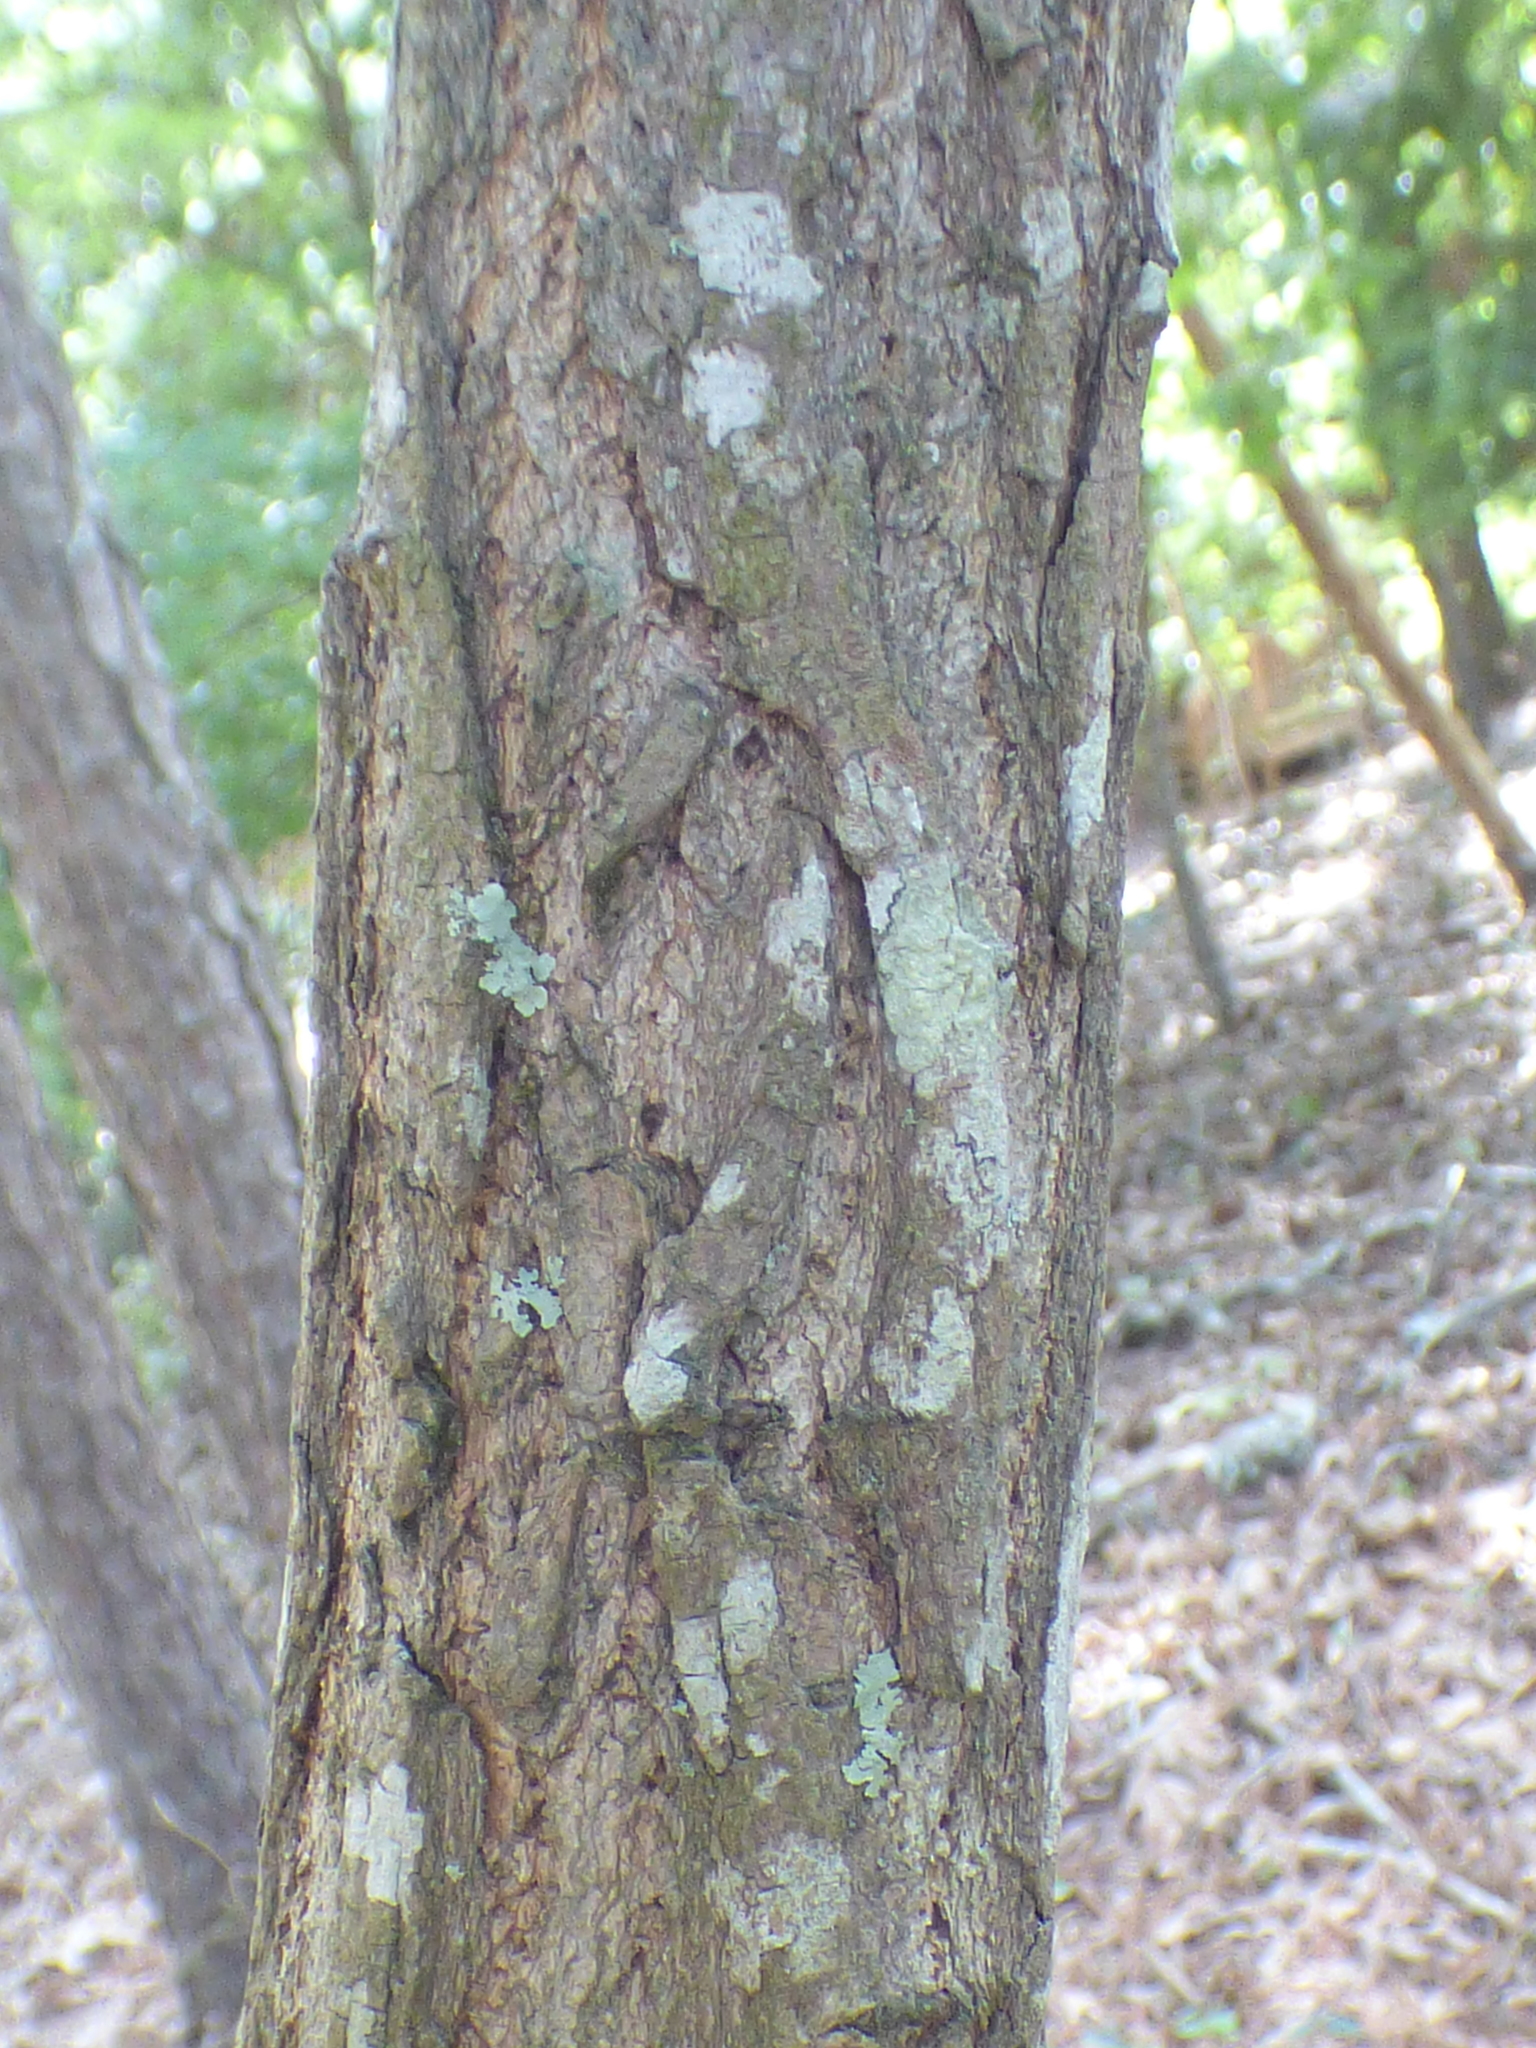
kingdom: Plantae
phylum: Tracheophyta
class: Magnoliopsida
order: Laurales
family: Lauraceae
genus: Sassafras
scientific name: Sassafras albidum
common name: Sassafras
